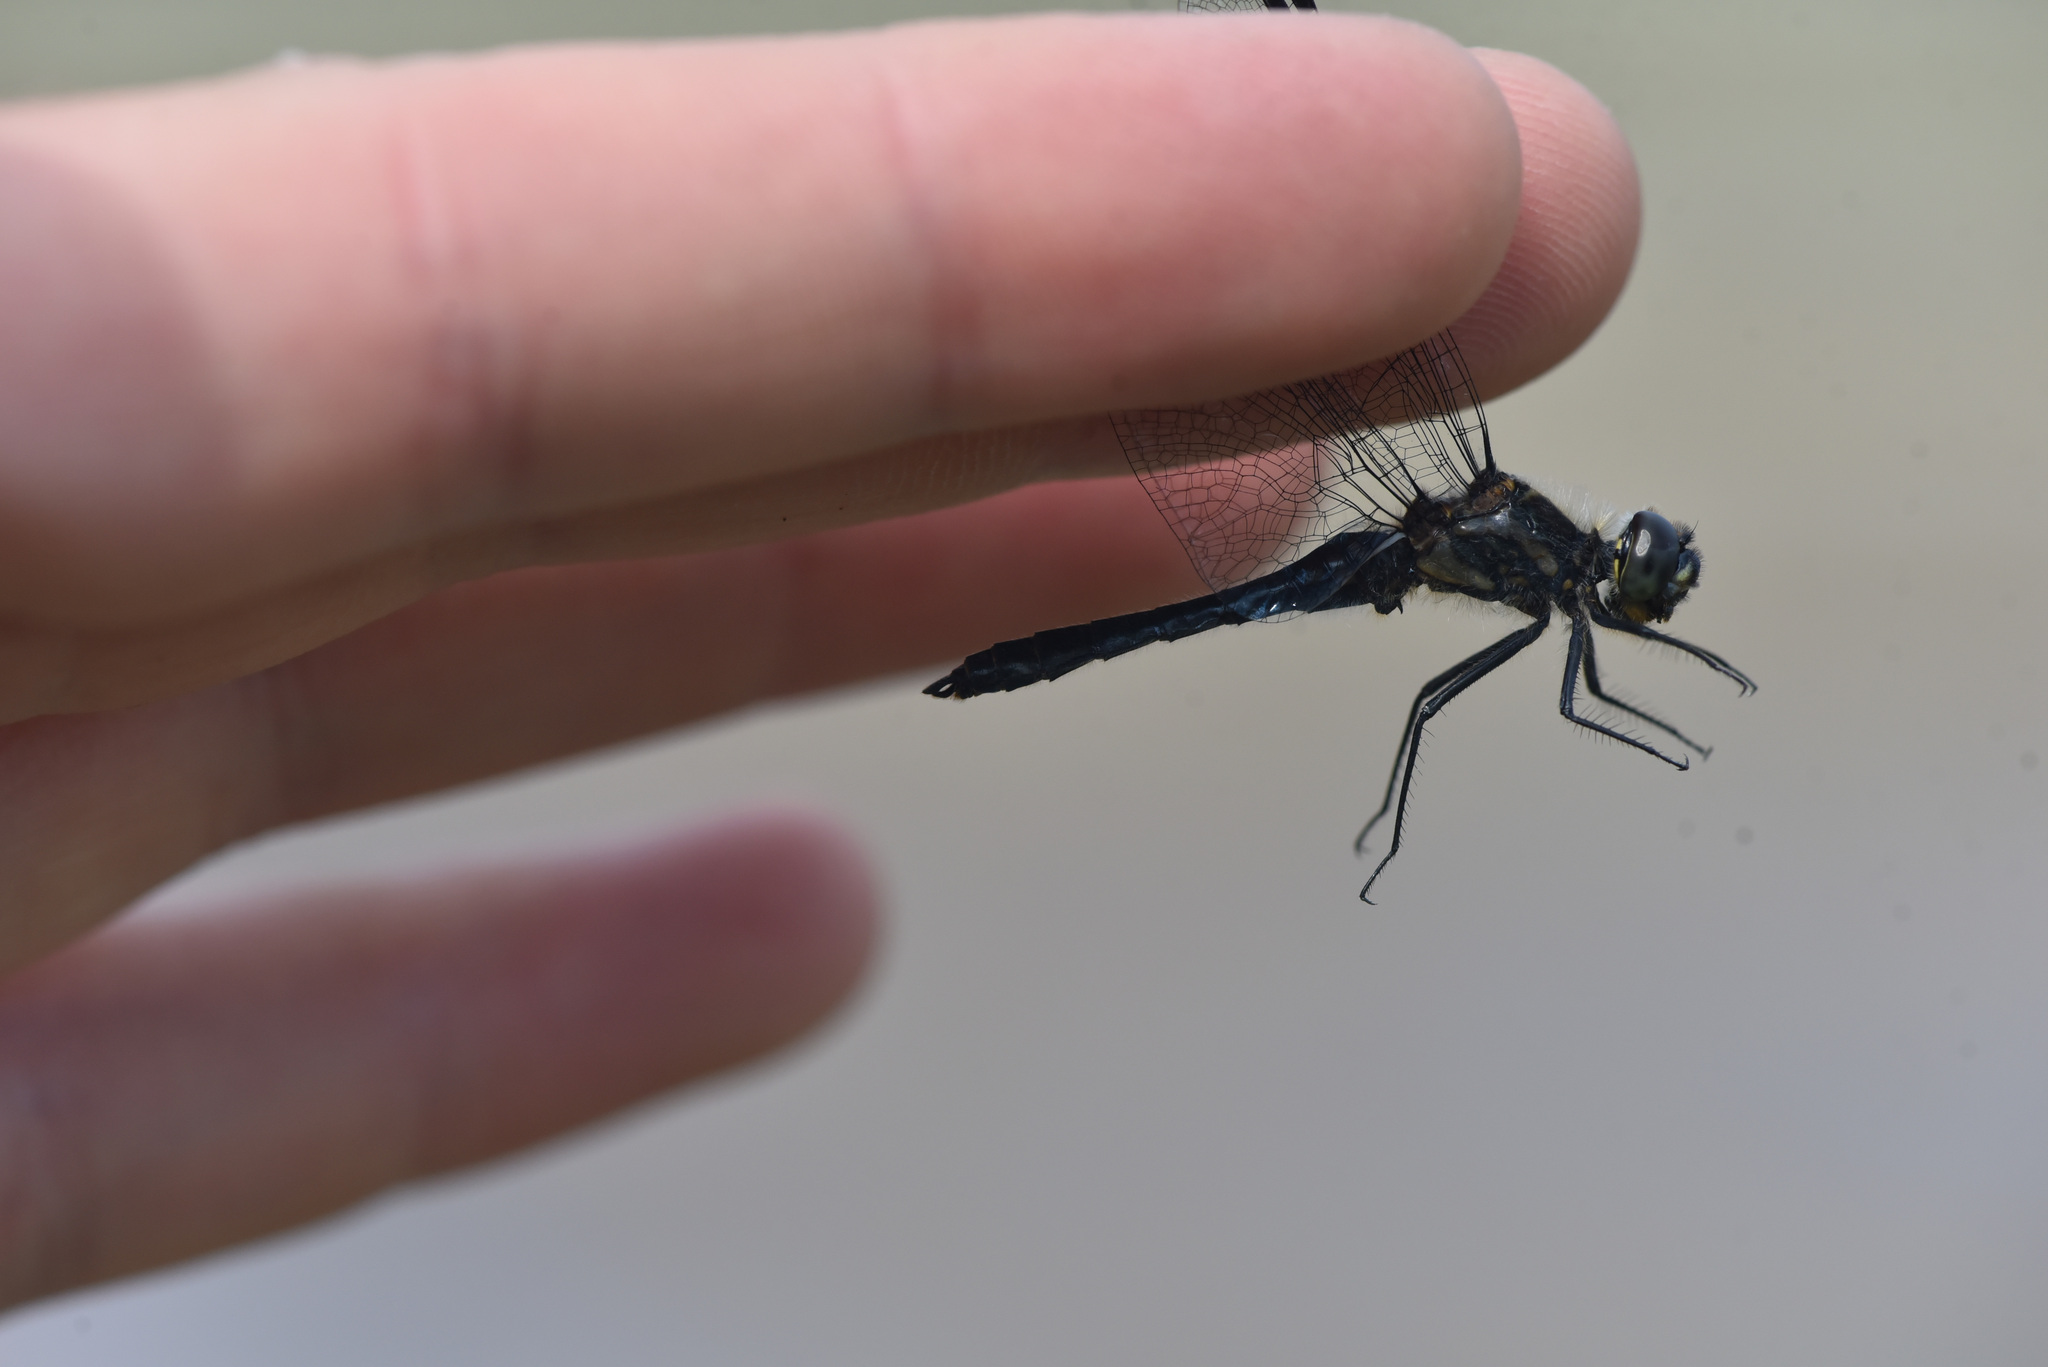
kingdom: Animalia
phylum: Arthropoda
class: Insecta
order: Odonata
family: Libellulidae
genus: Sympetrum
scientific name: Sympetrum danae
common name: Black darter
